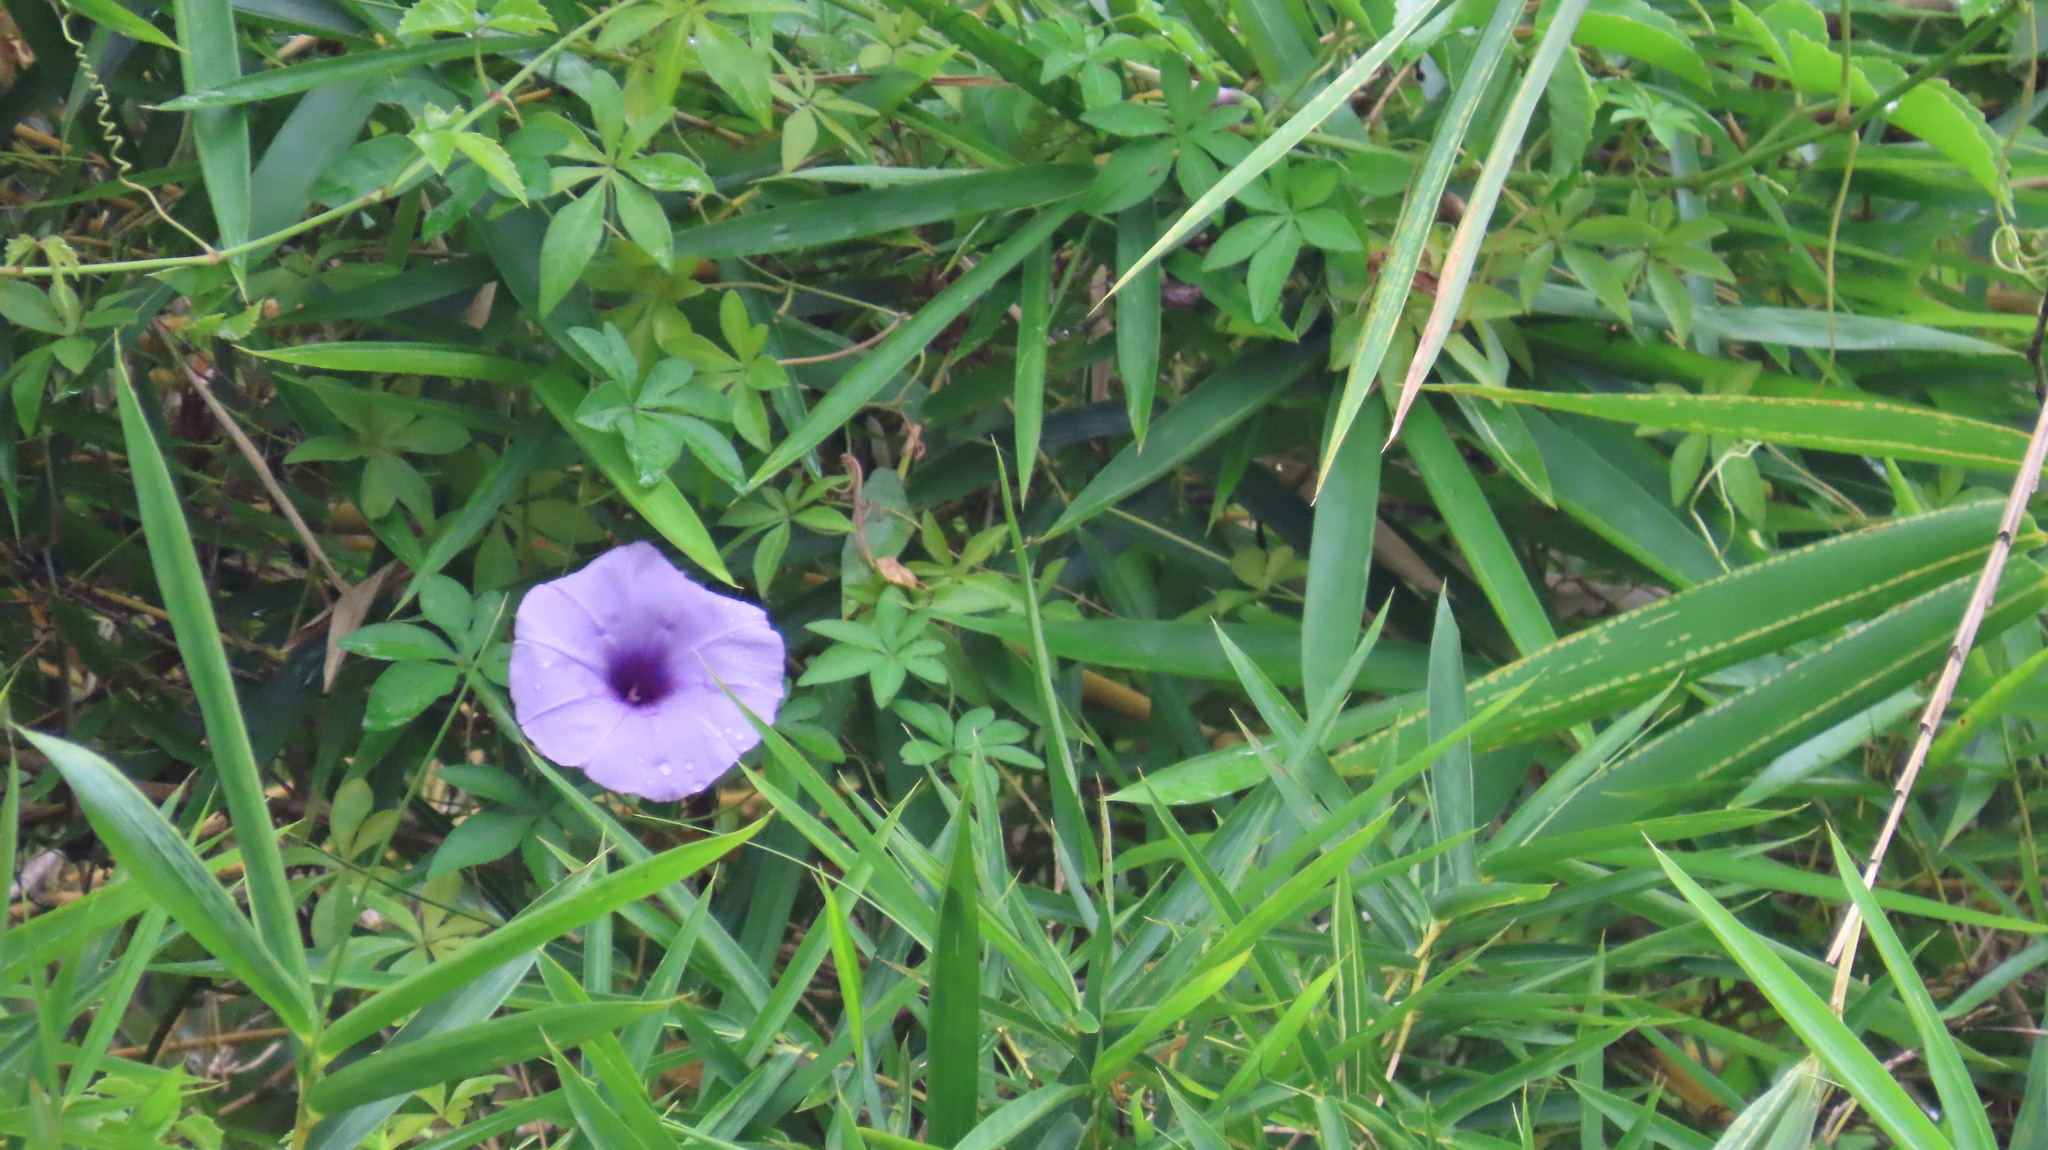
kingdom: Plantae
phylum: Tracheophyta
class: Magnoliopsida
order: Solanales
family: Convolvulaceae
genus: Ipomoea
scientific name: Ipomoea cairica
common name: Mile a minute vine
